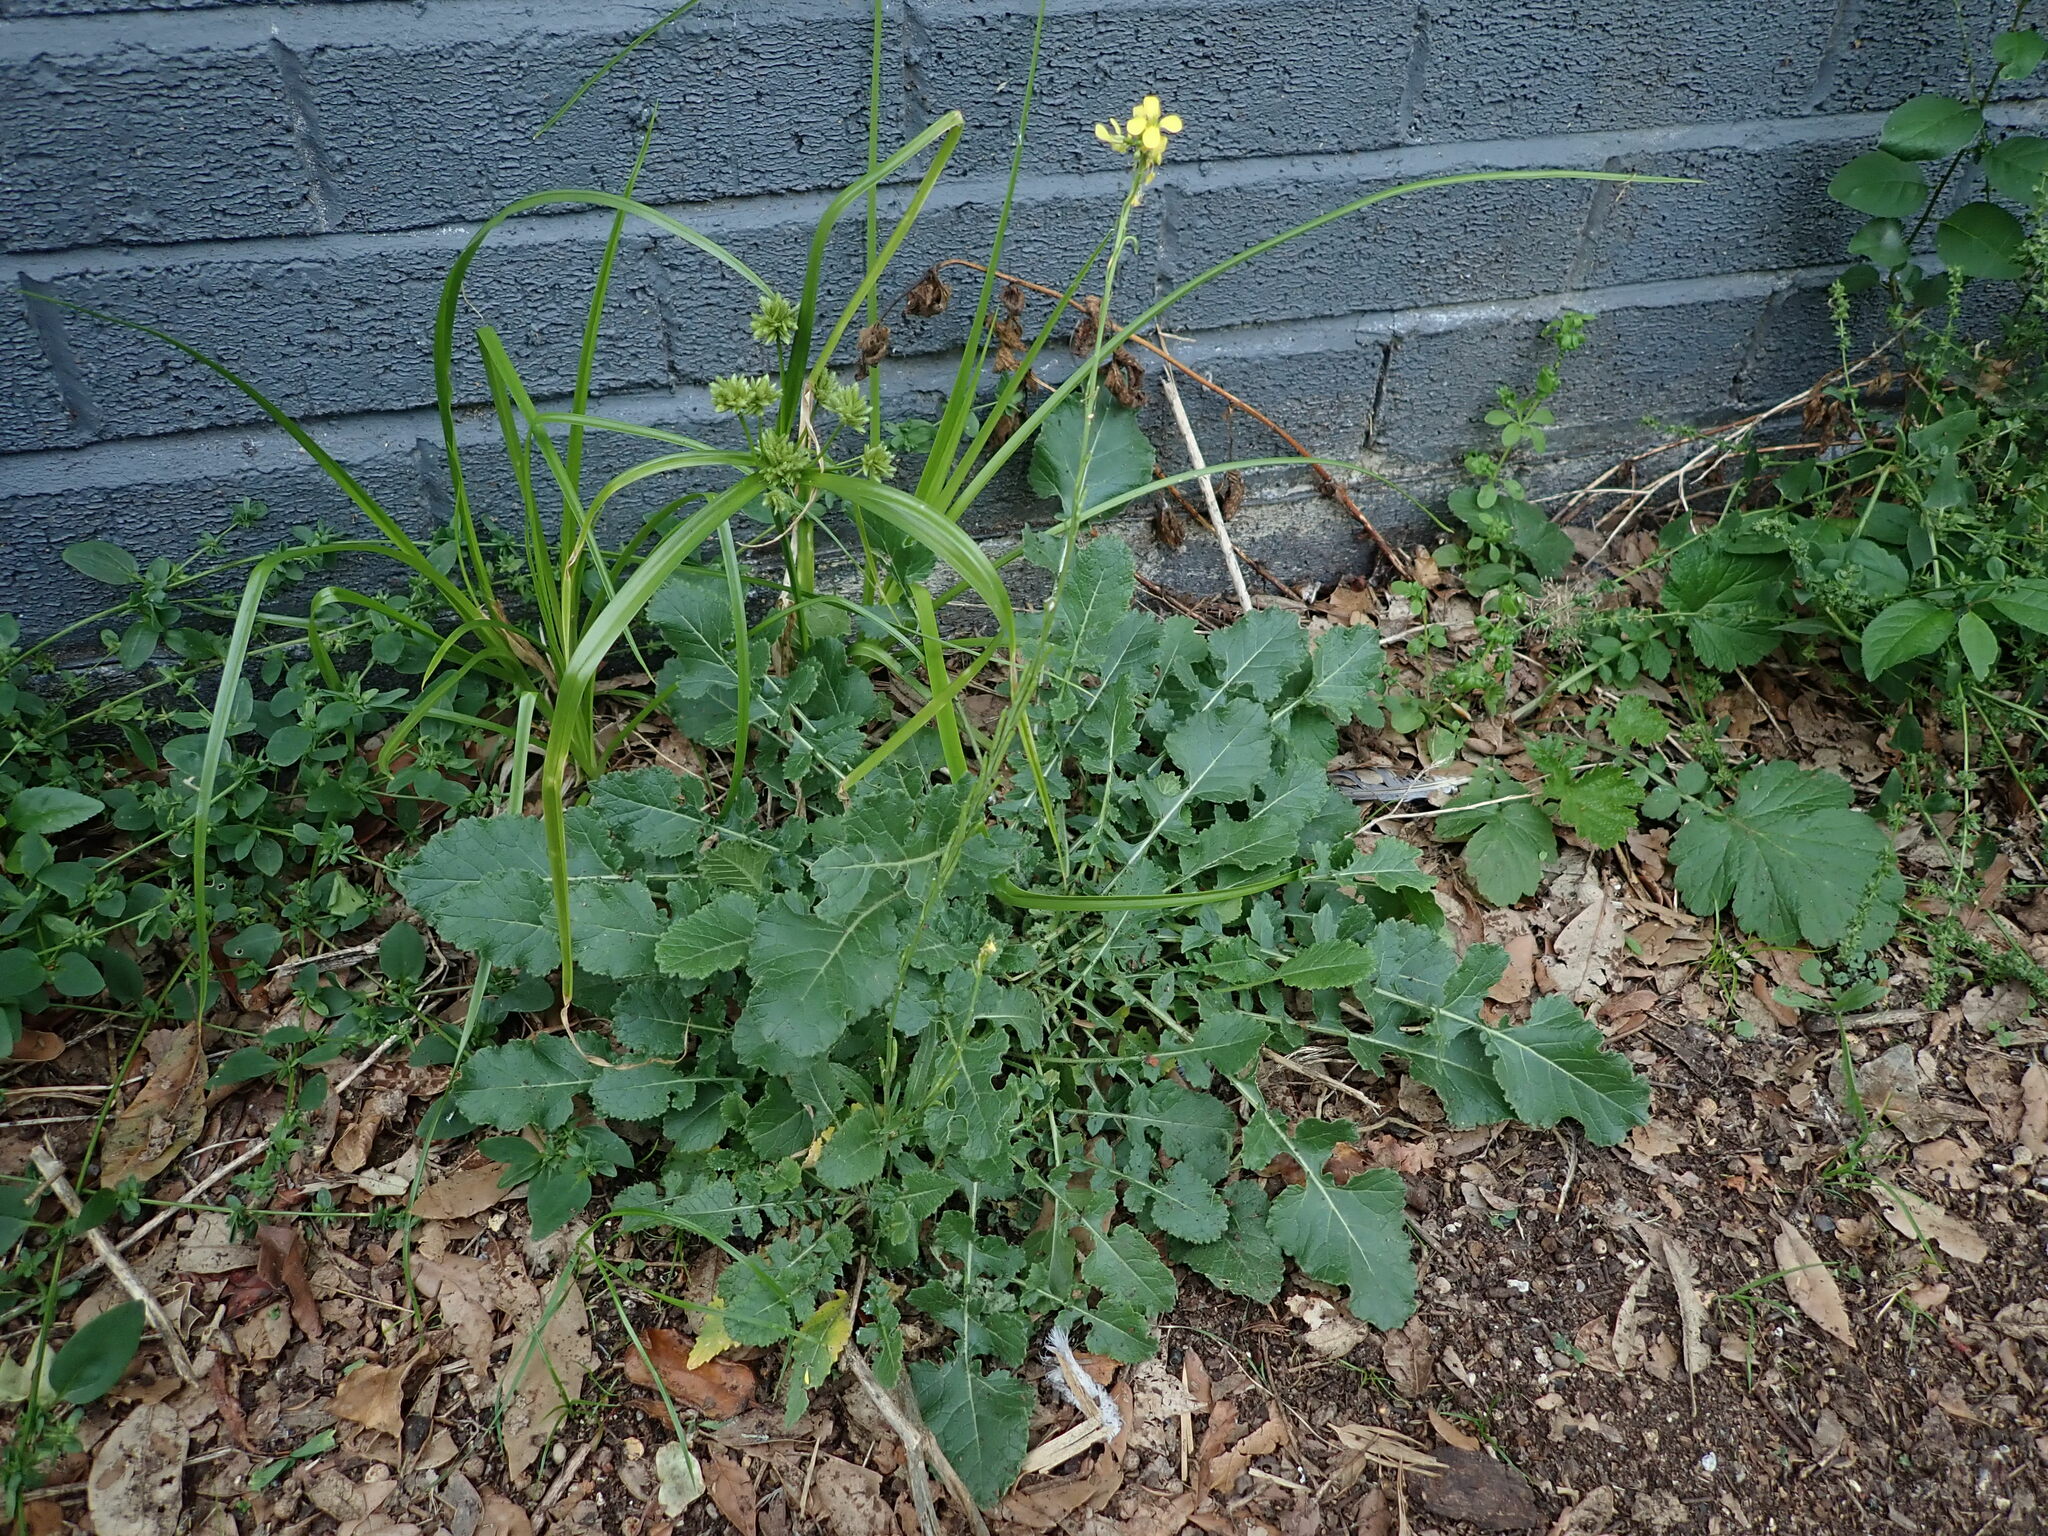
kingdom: Plantae
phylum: Tracheophyta
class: Magnoliopsida
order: Brassicales
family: Brassicaceae
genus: Hirschfeldia
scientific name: Hirschfeldia incana
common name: Hoary mustard
